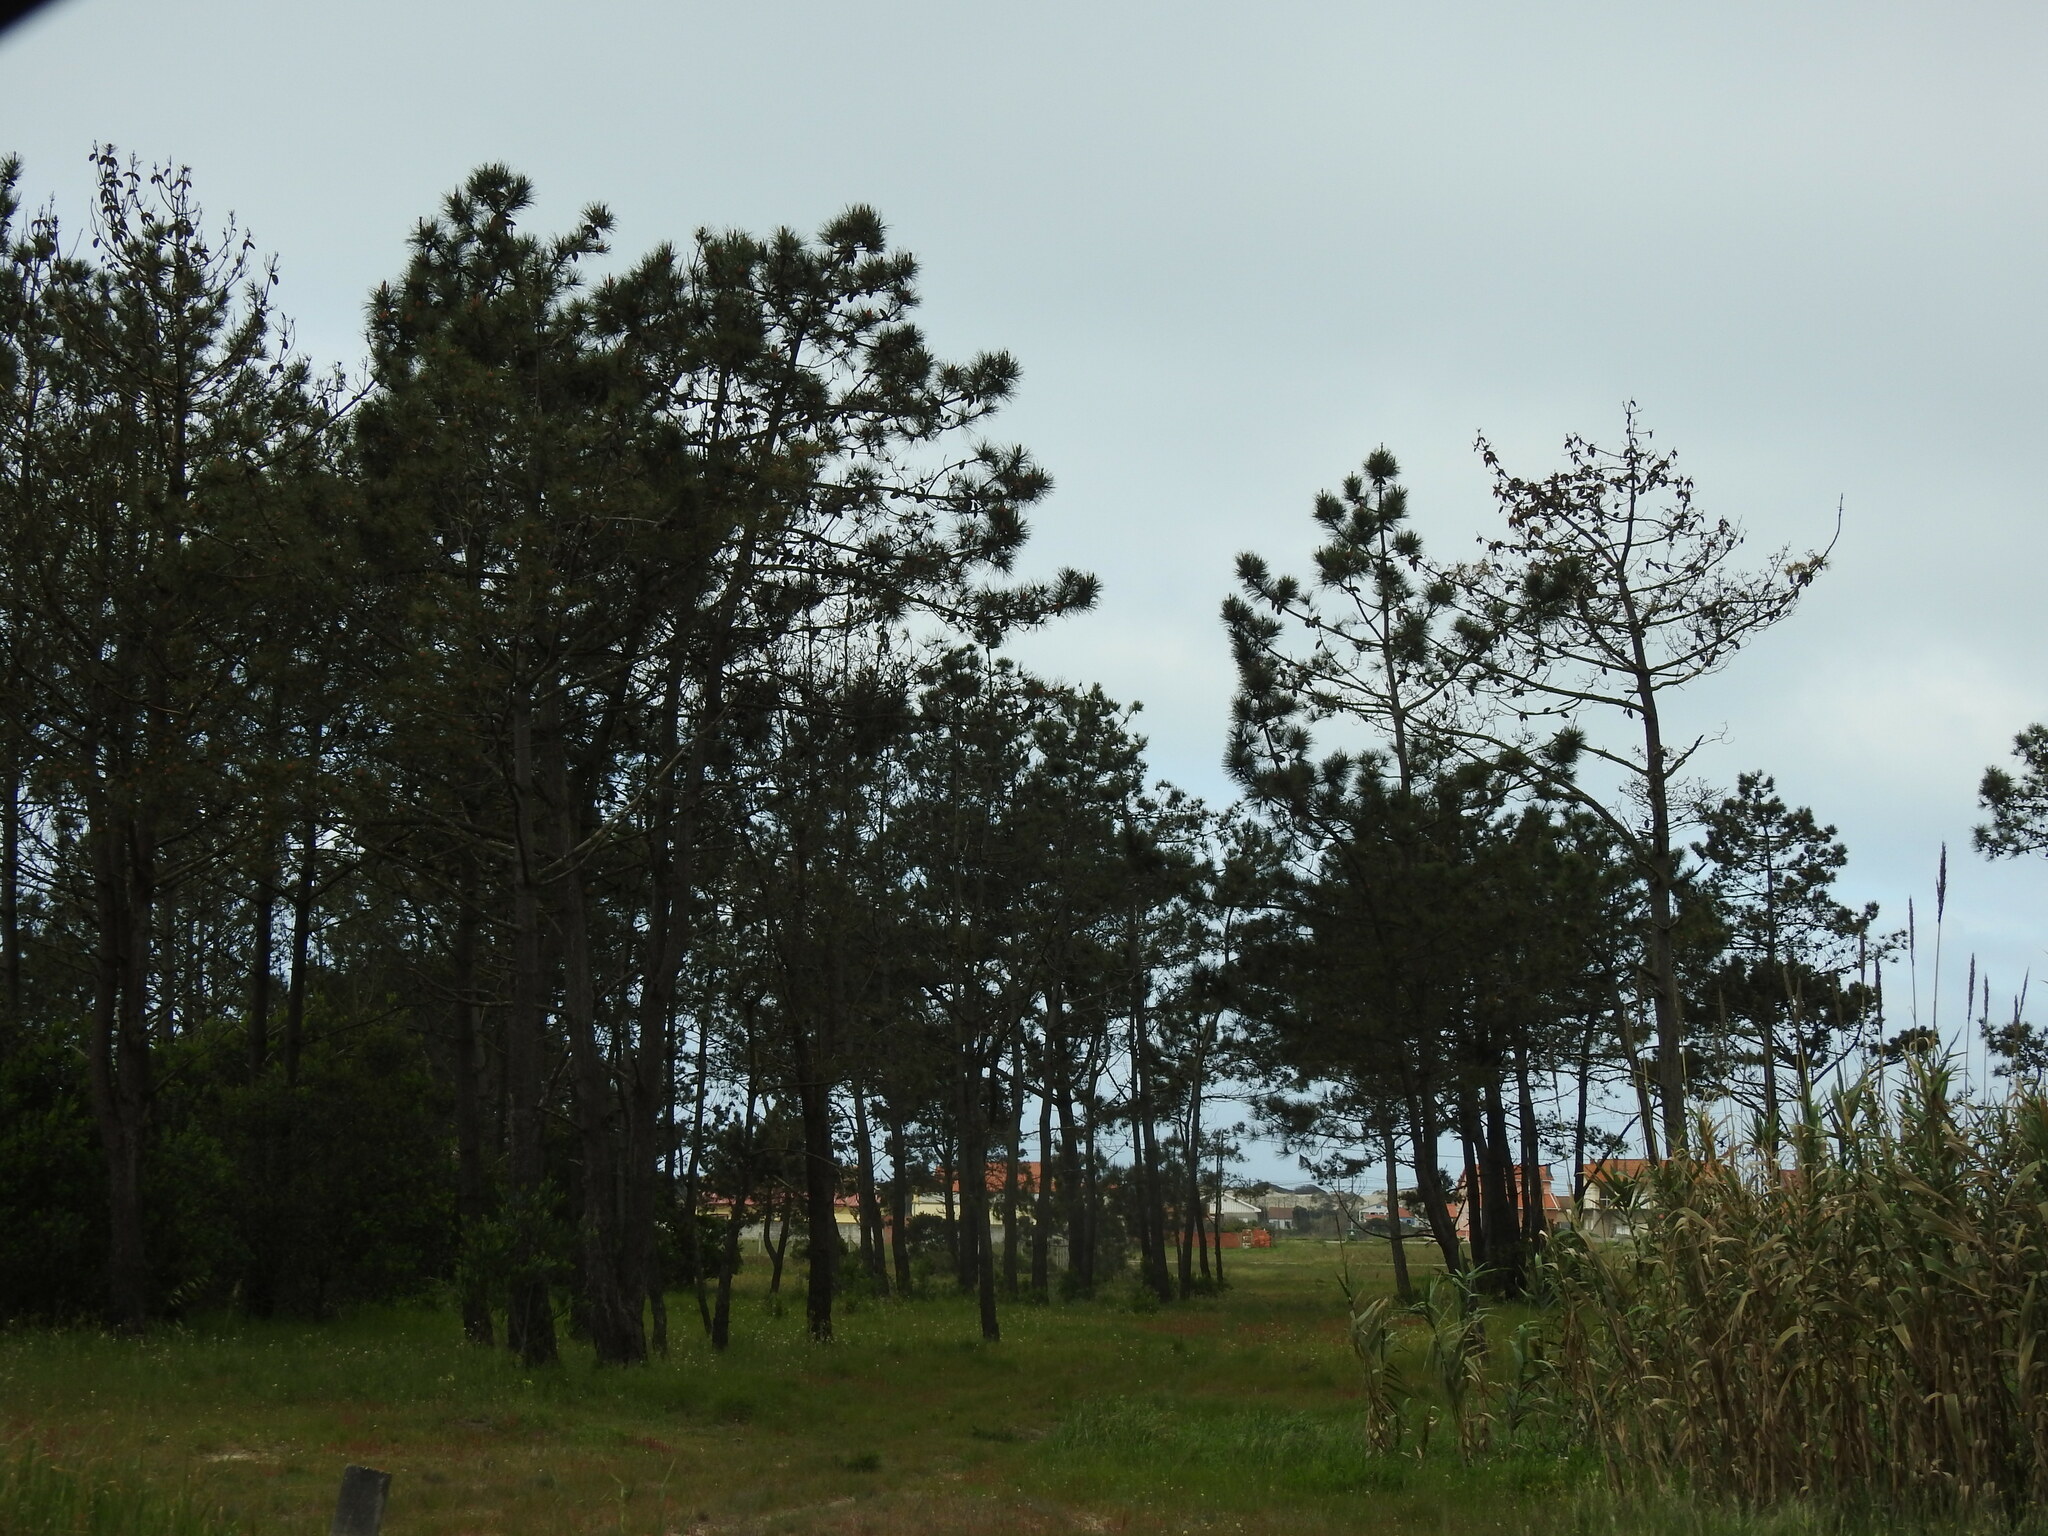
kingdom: Plantae
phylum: Tracheophyta
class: Pinopsida
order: Pinales
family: Pinaceae
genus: Pinus
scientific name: Pinus pinaster
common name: Maritime pine
